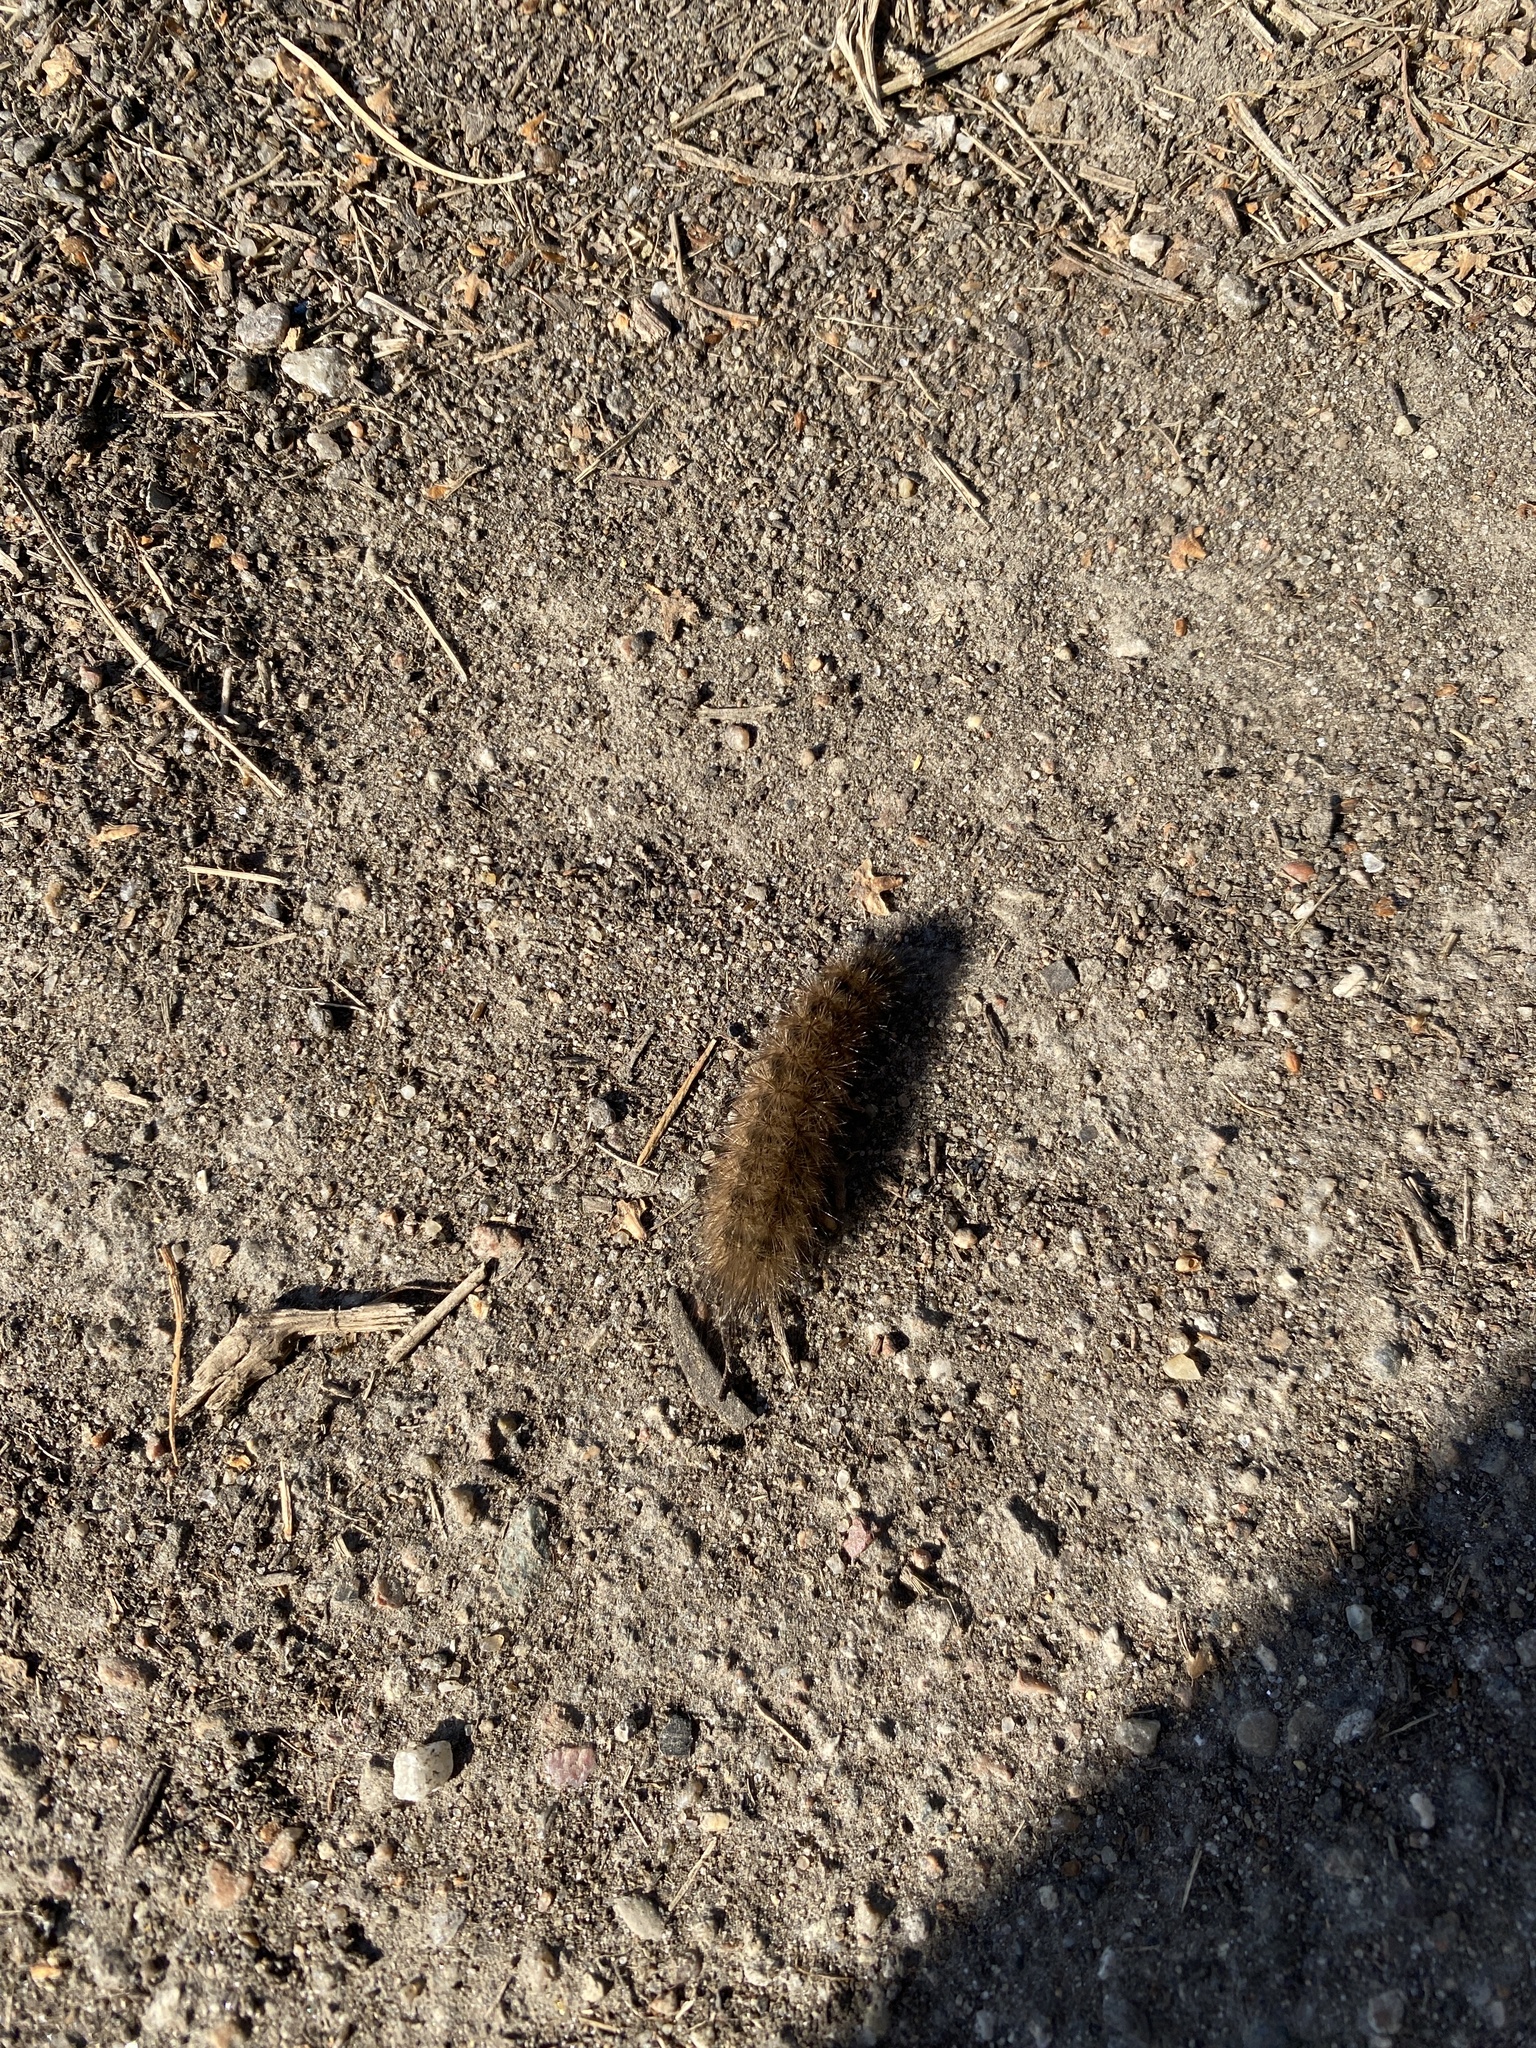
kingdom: Animalia
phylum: Arthropoda
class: Insecta
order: Lepidoptera
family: Erebidae
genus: Phragmatobia
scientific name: Phragmatobia fuliginosa
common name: Ruby tiger
